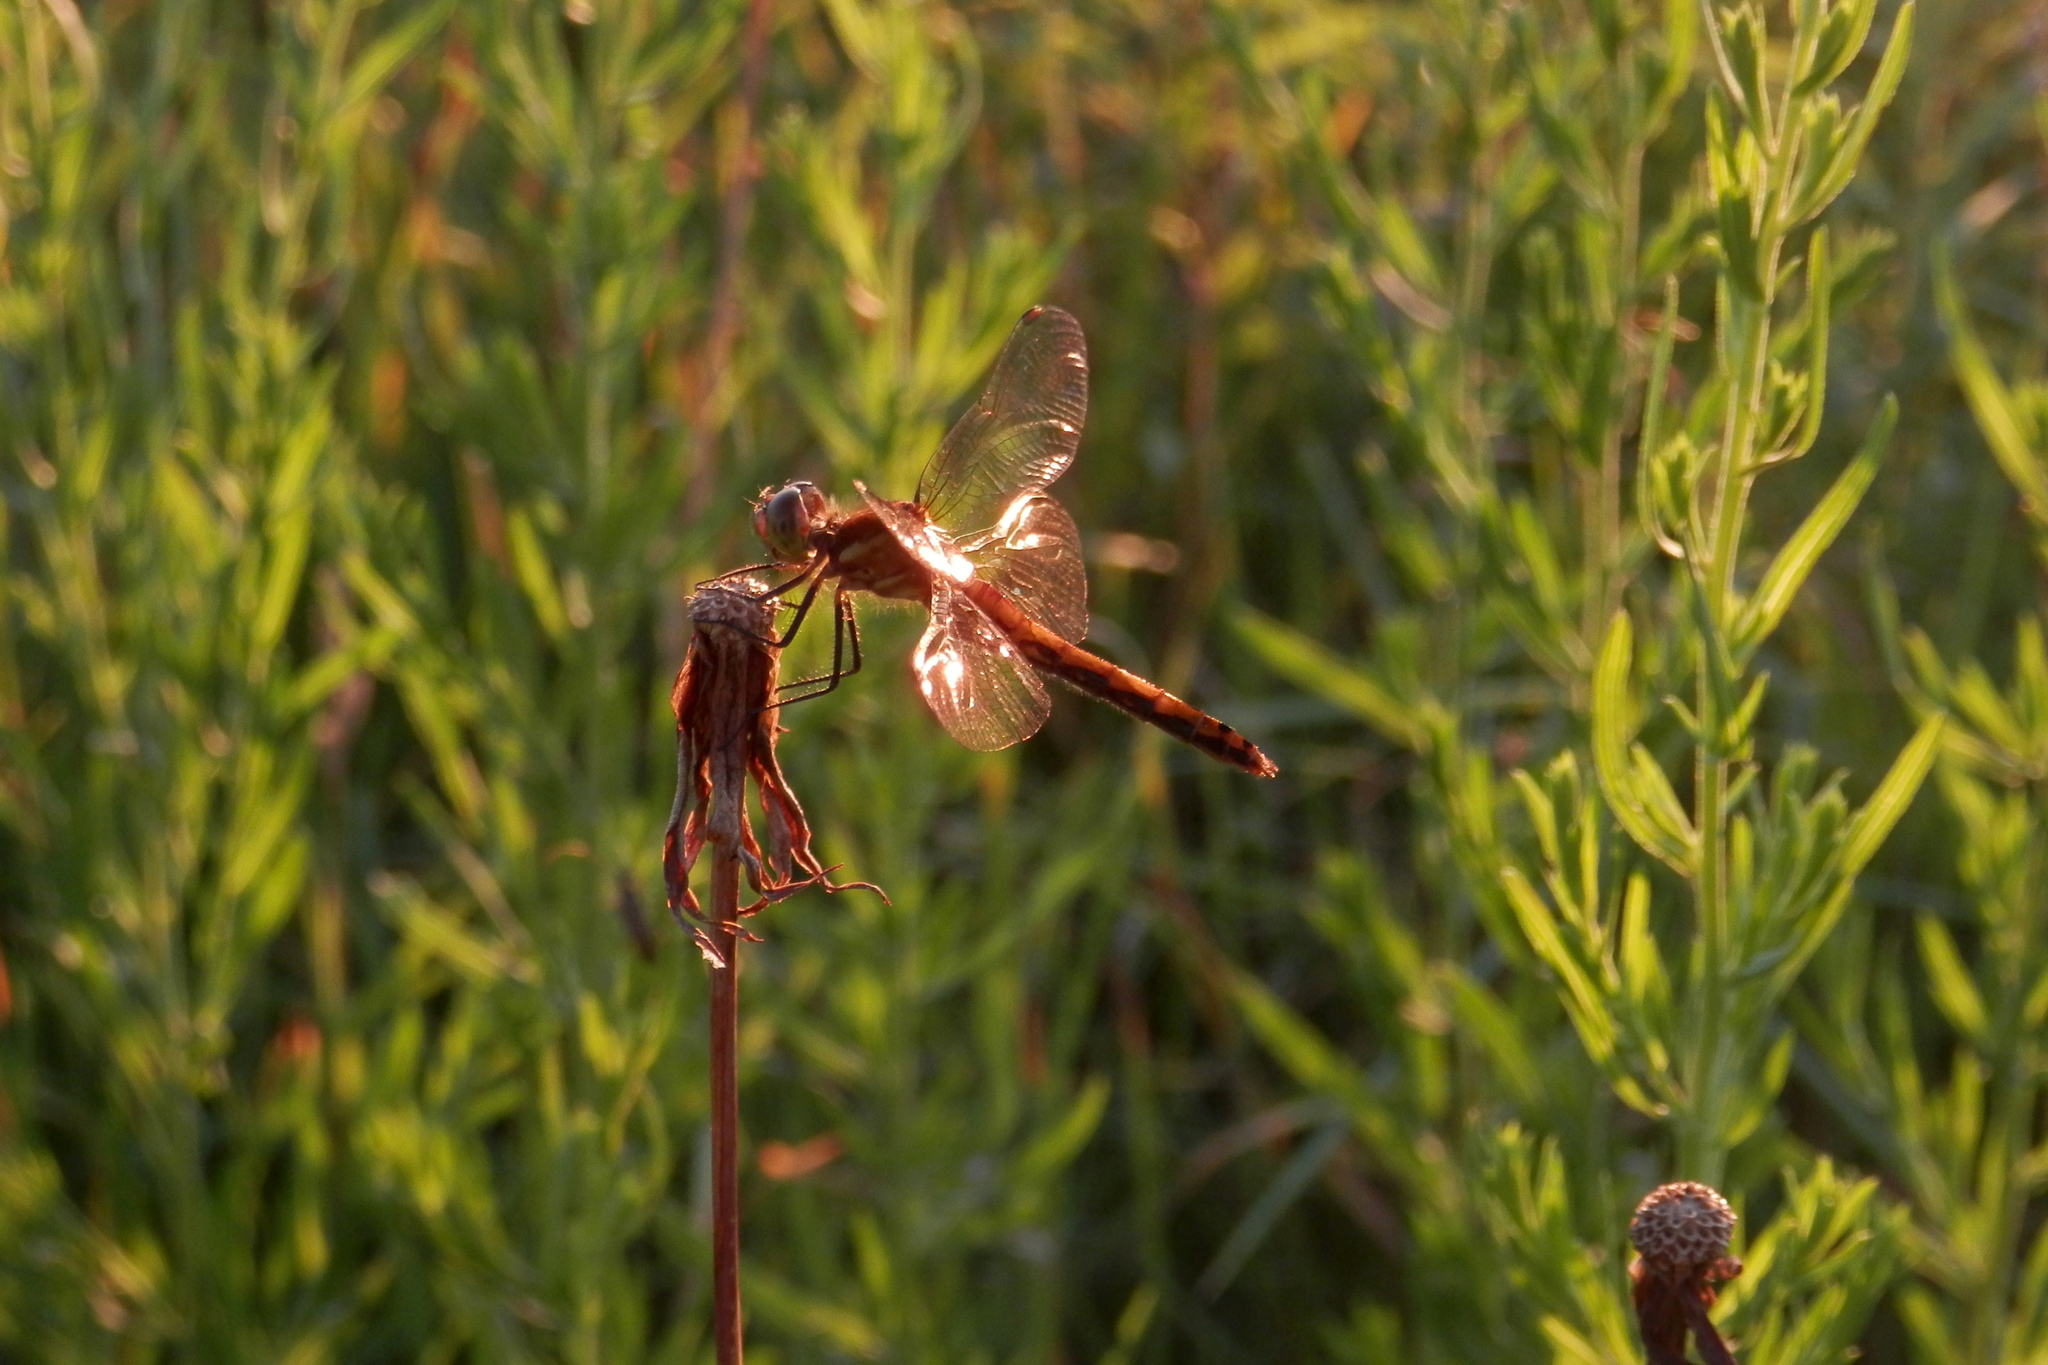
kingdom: Animalia
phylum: Arthropoda
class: Insecta
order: Odonata
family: Libellulidae
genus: Sympetrum
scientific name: Sympetrum
